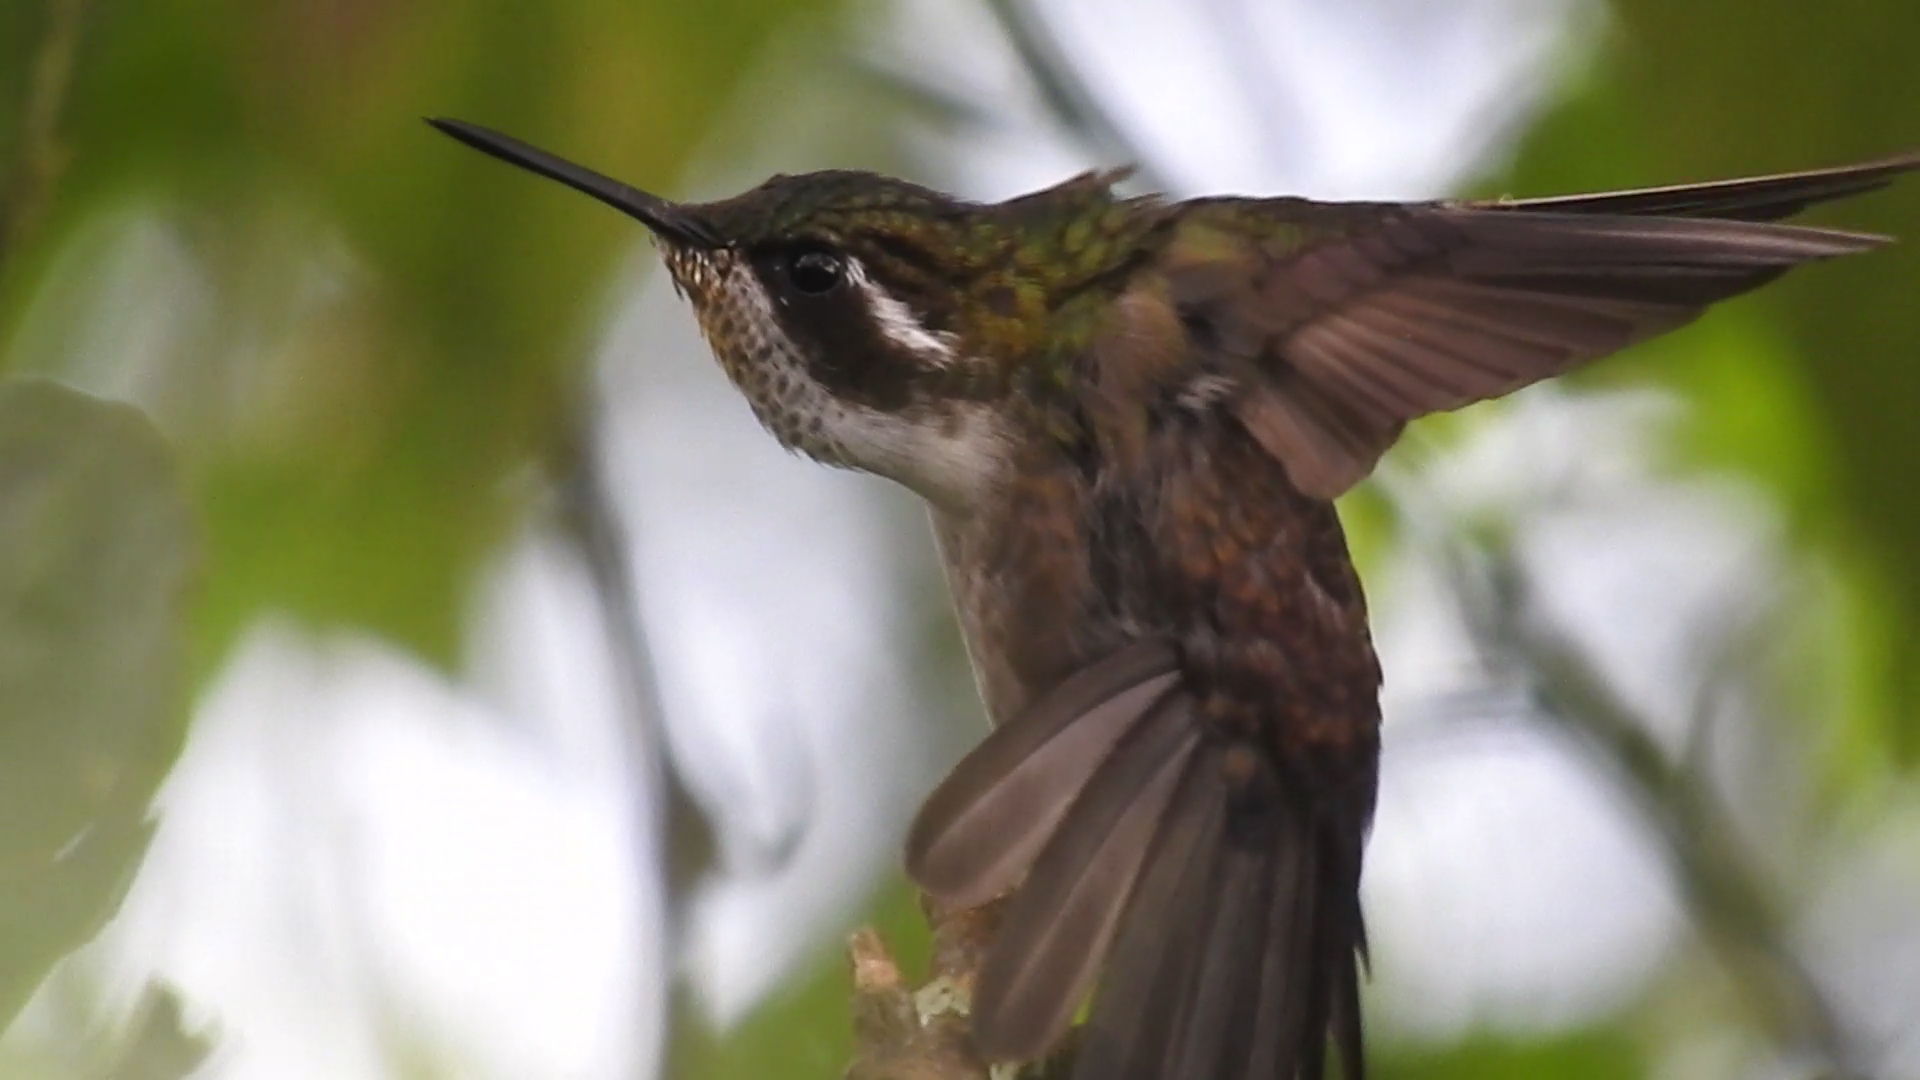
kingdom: Animalia
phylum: Chordata
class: Aves
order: Apodiformes
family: Trochilidae
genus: Lampornis
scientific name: Lampornis viridipallens
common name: Green-throated mountain-gem
